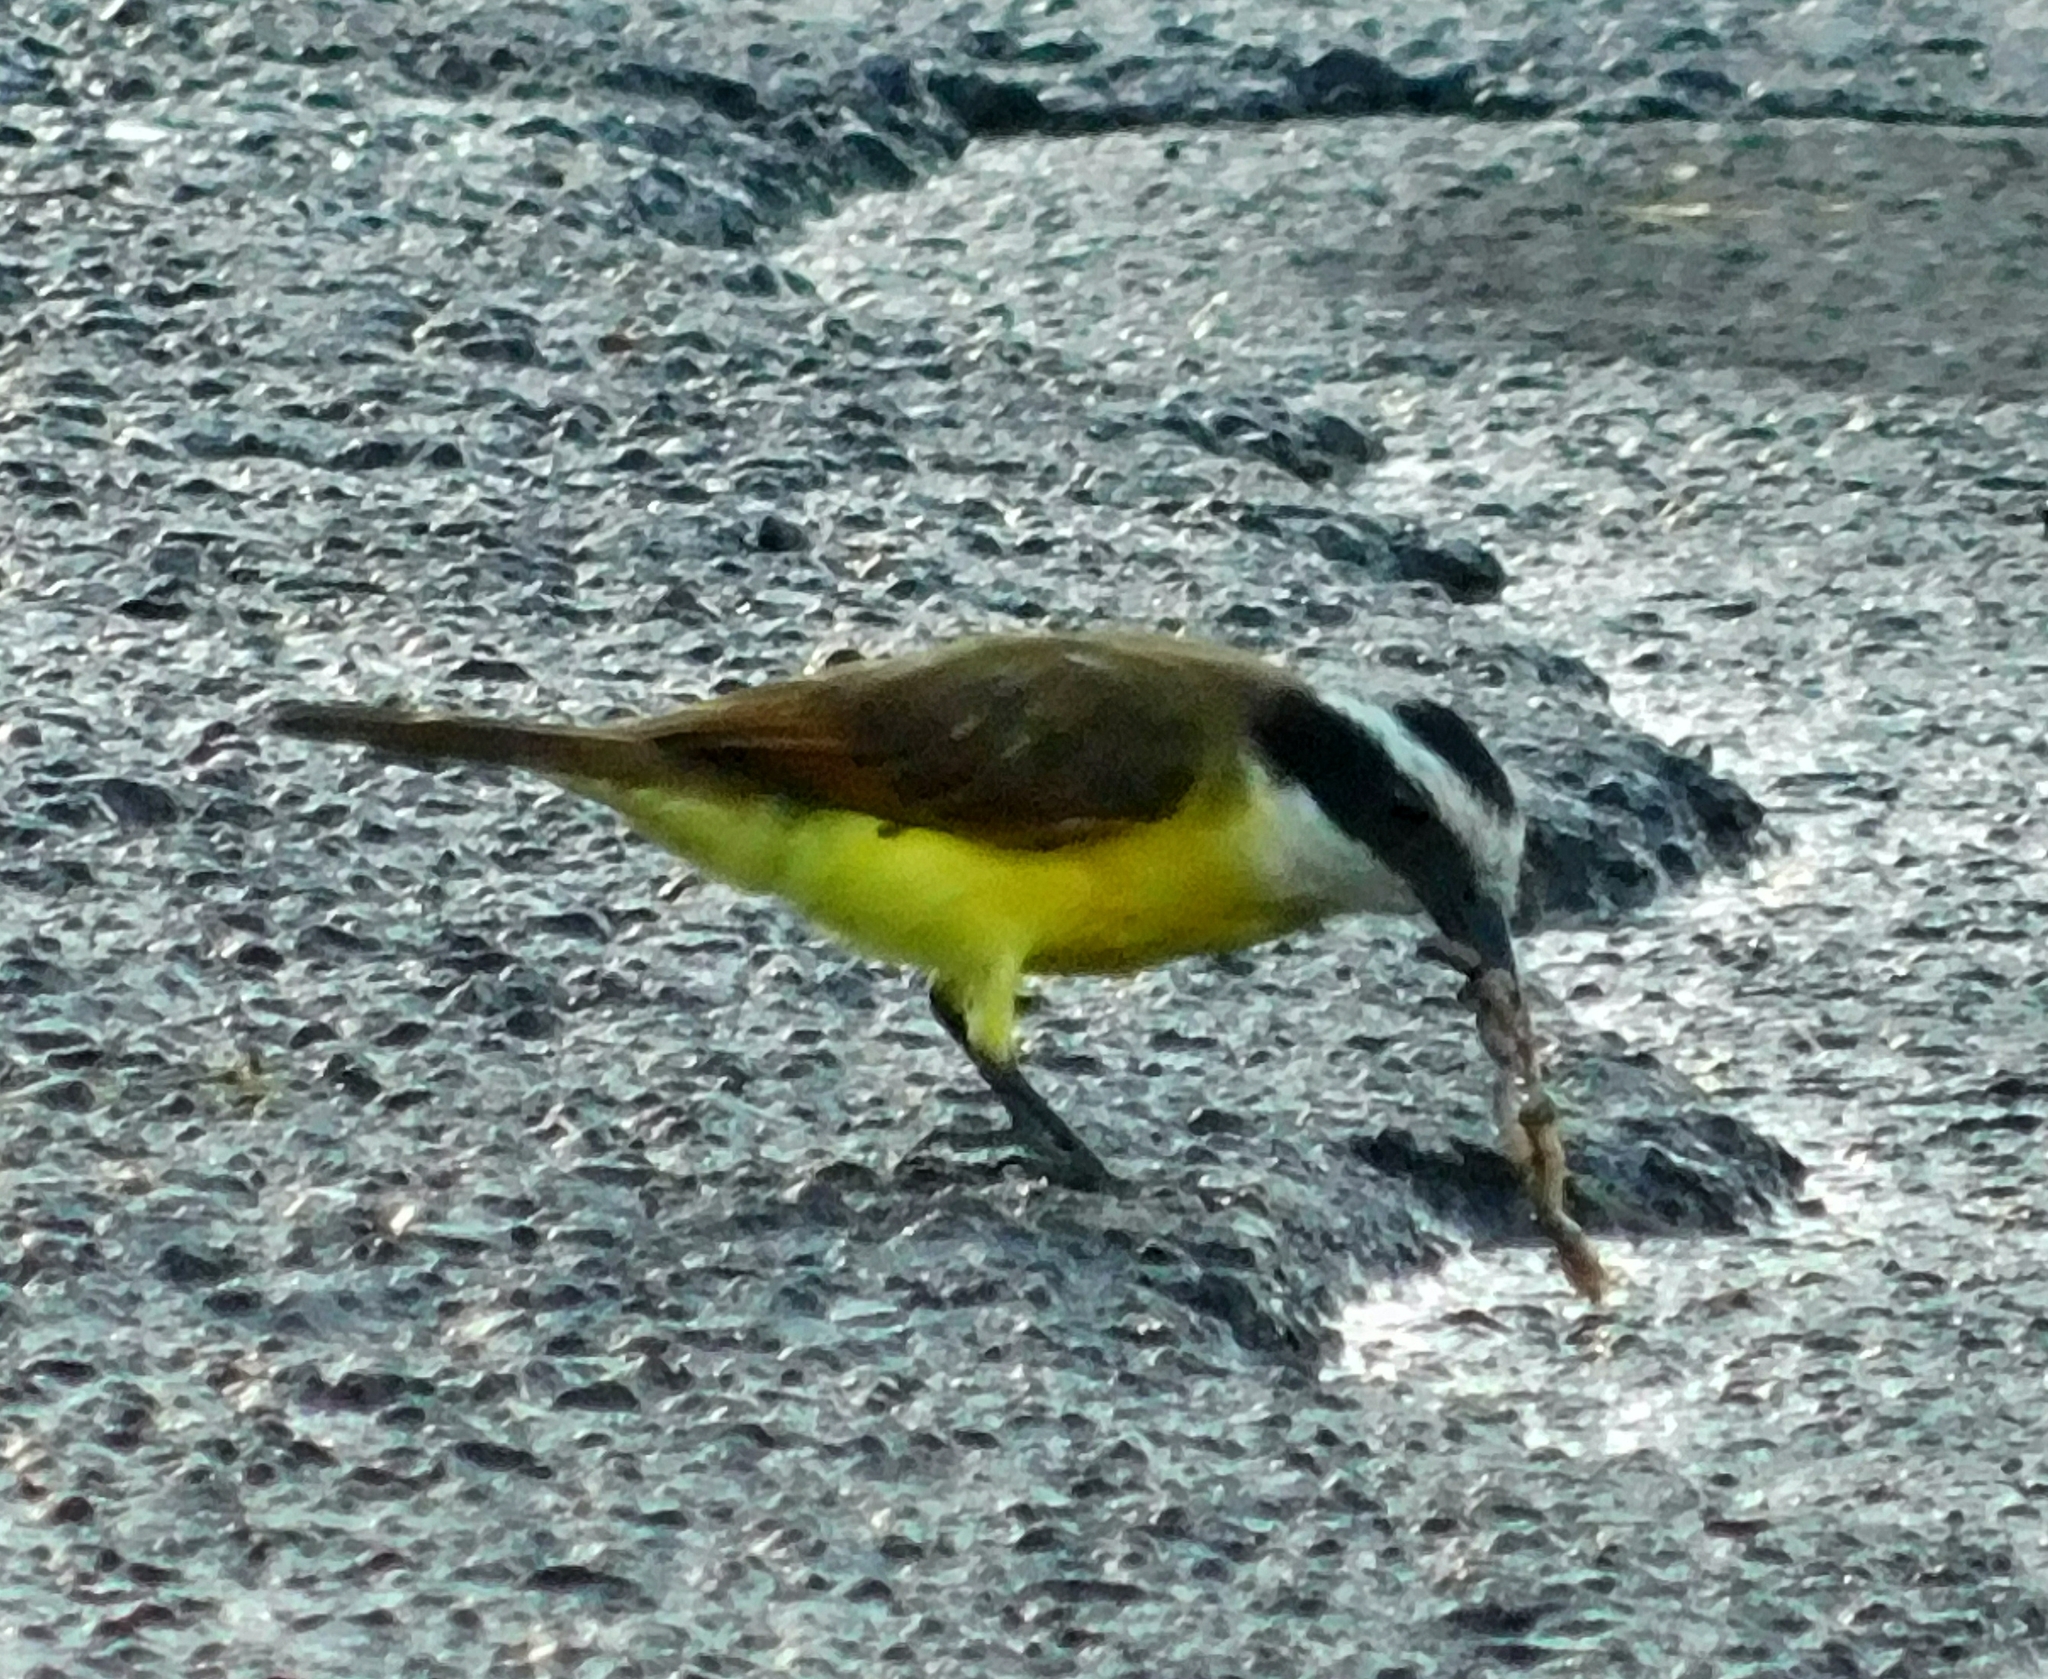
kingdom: Animalia
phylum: Chordata
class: Aves
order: Passeriformes
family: Tyrannidae
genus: Pitangus
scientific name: Pitangus sulphuratus
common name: Great kiskadee
